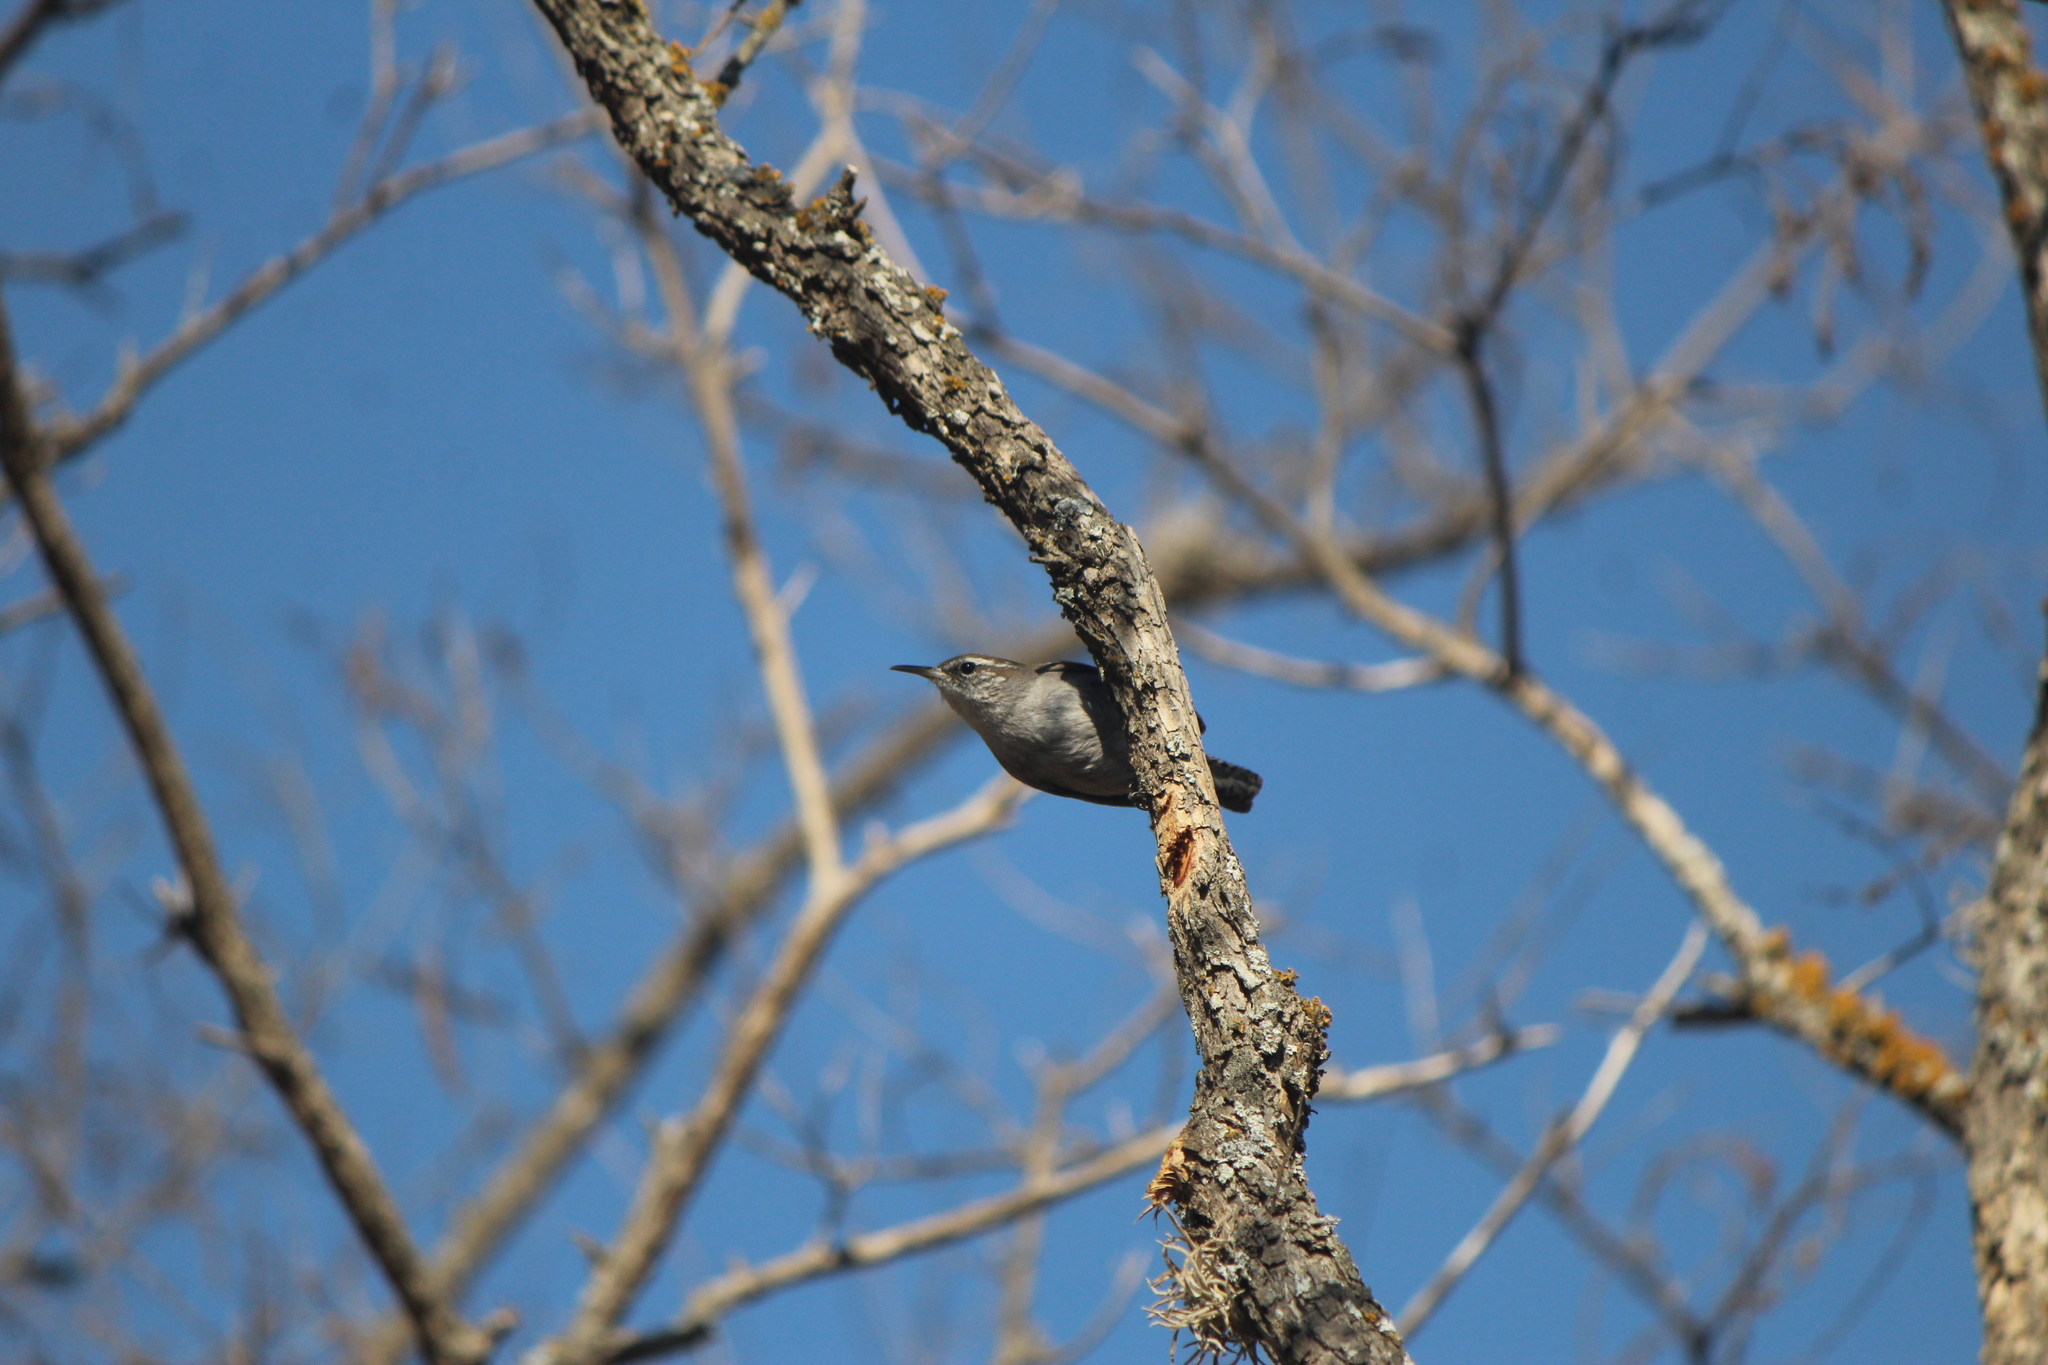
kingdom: Animalia
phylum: Chordata
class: Aves
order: Passeriformes
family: Troglodytidae
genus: Thryomanes
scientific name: Thryomanes bewickii
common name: Bewick's wren
